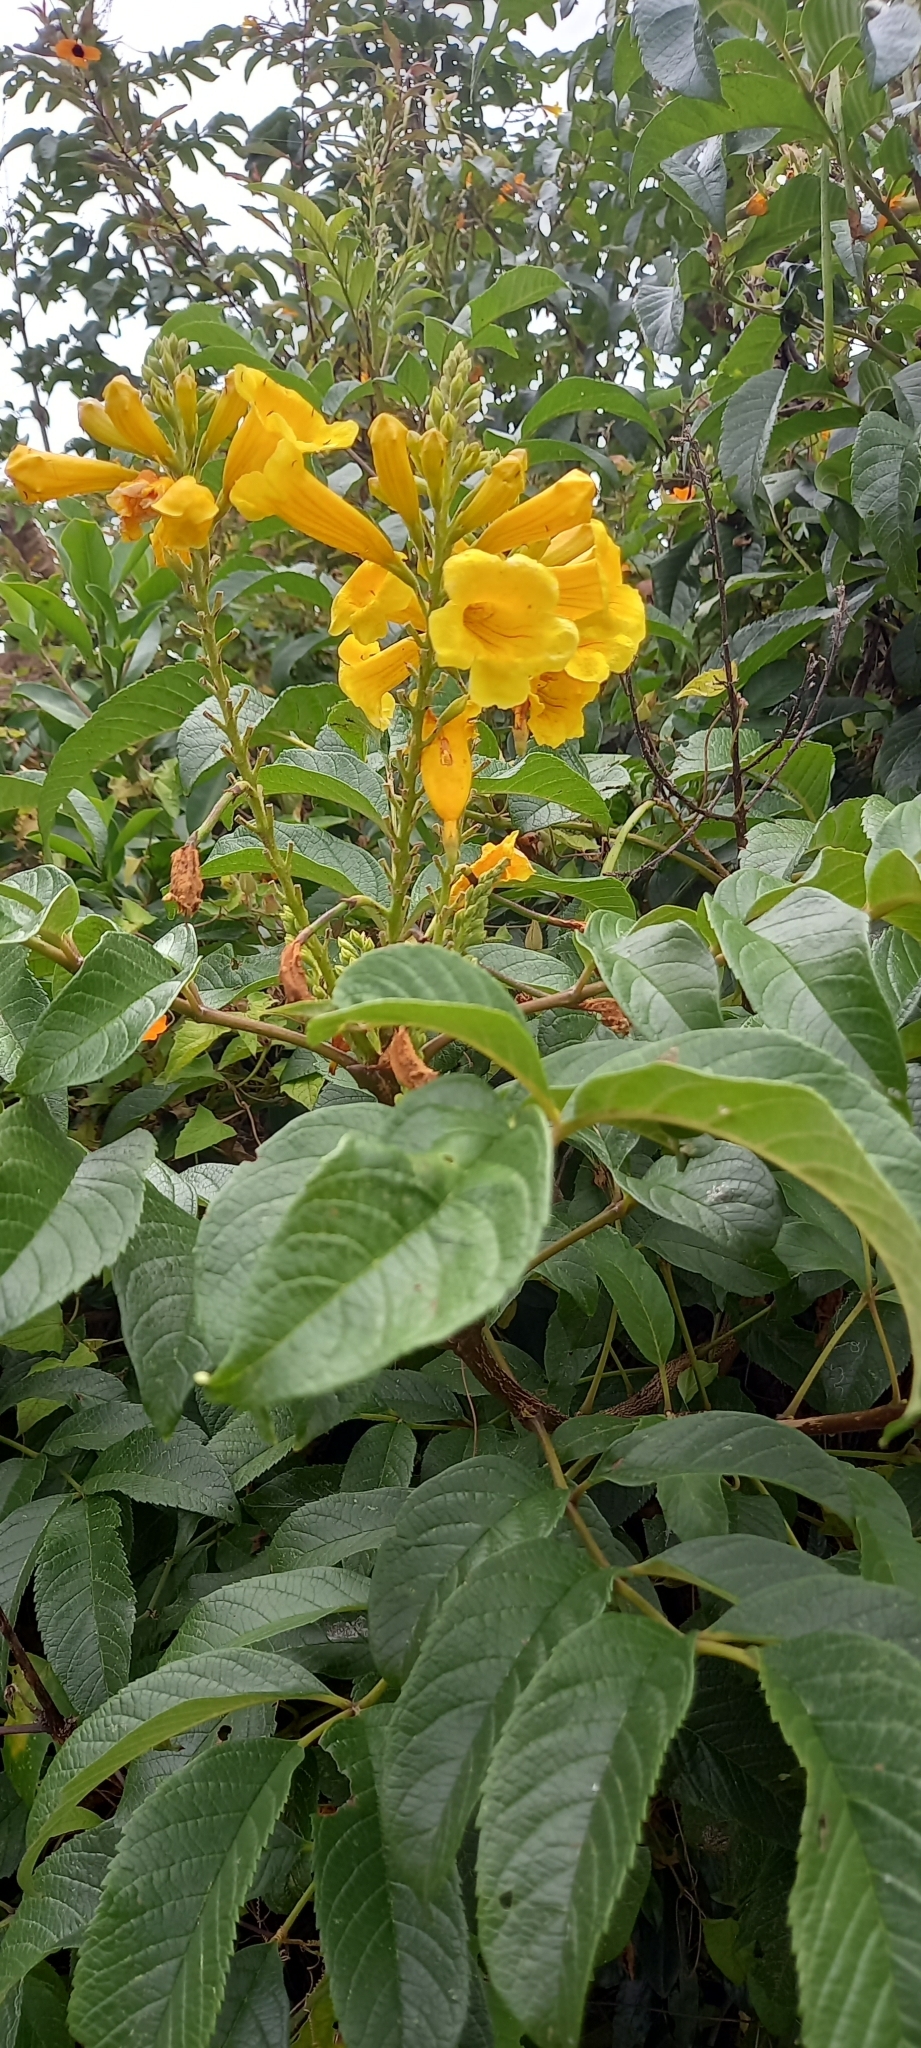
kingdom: Plantae
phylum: Tracheophyta
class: Magnoliopsida
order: Lamiales
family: Bignoniaceae
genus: Tecoma
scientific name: Tecoma stans
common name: Yellow trumpetbush
